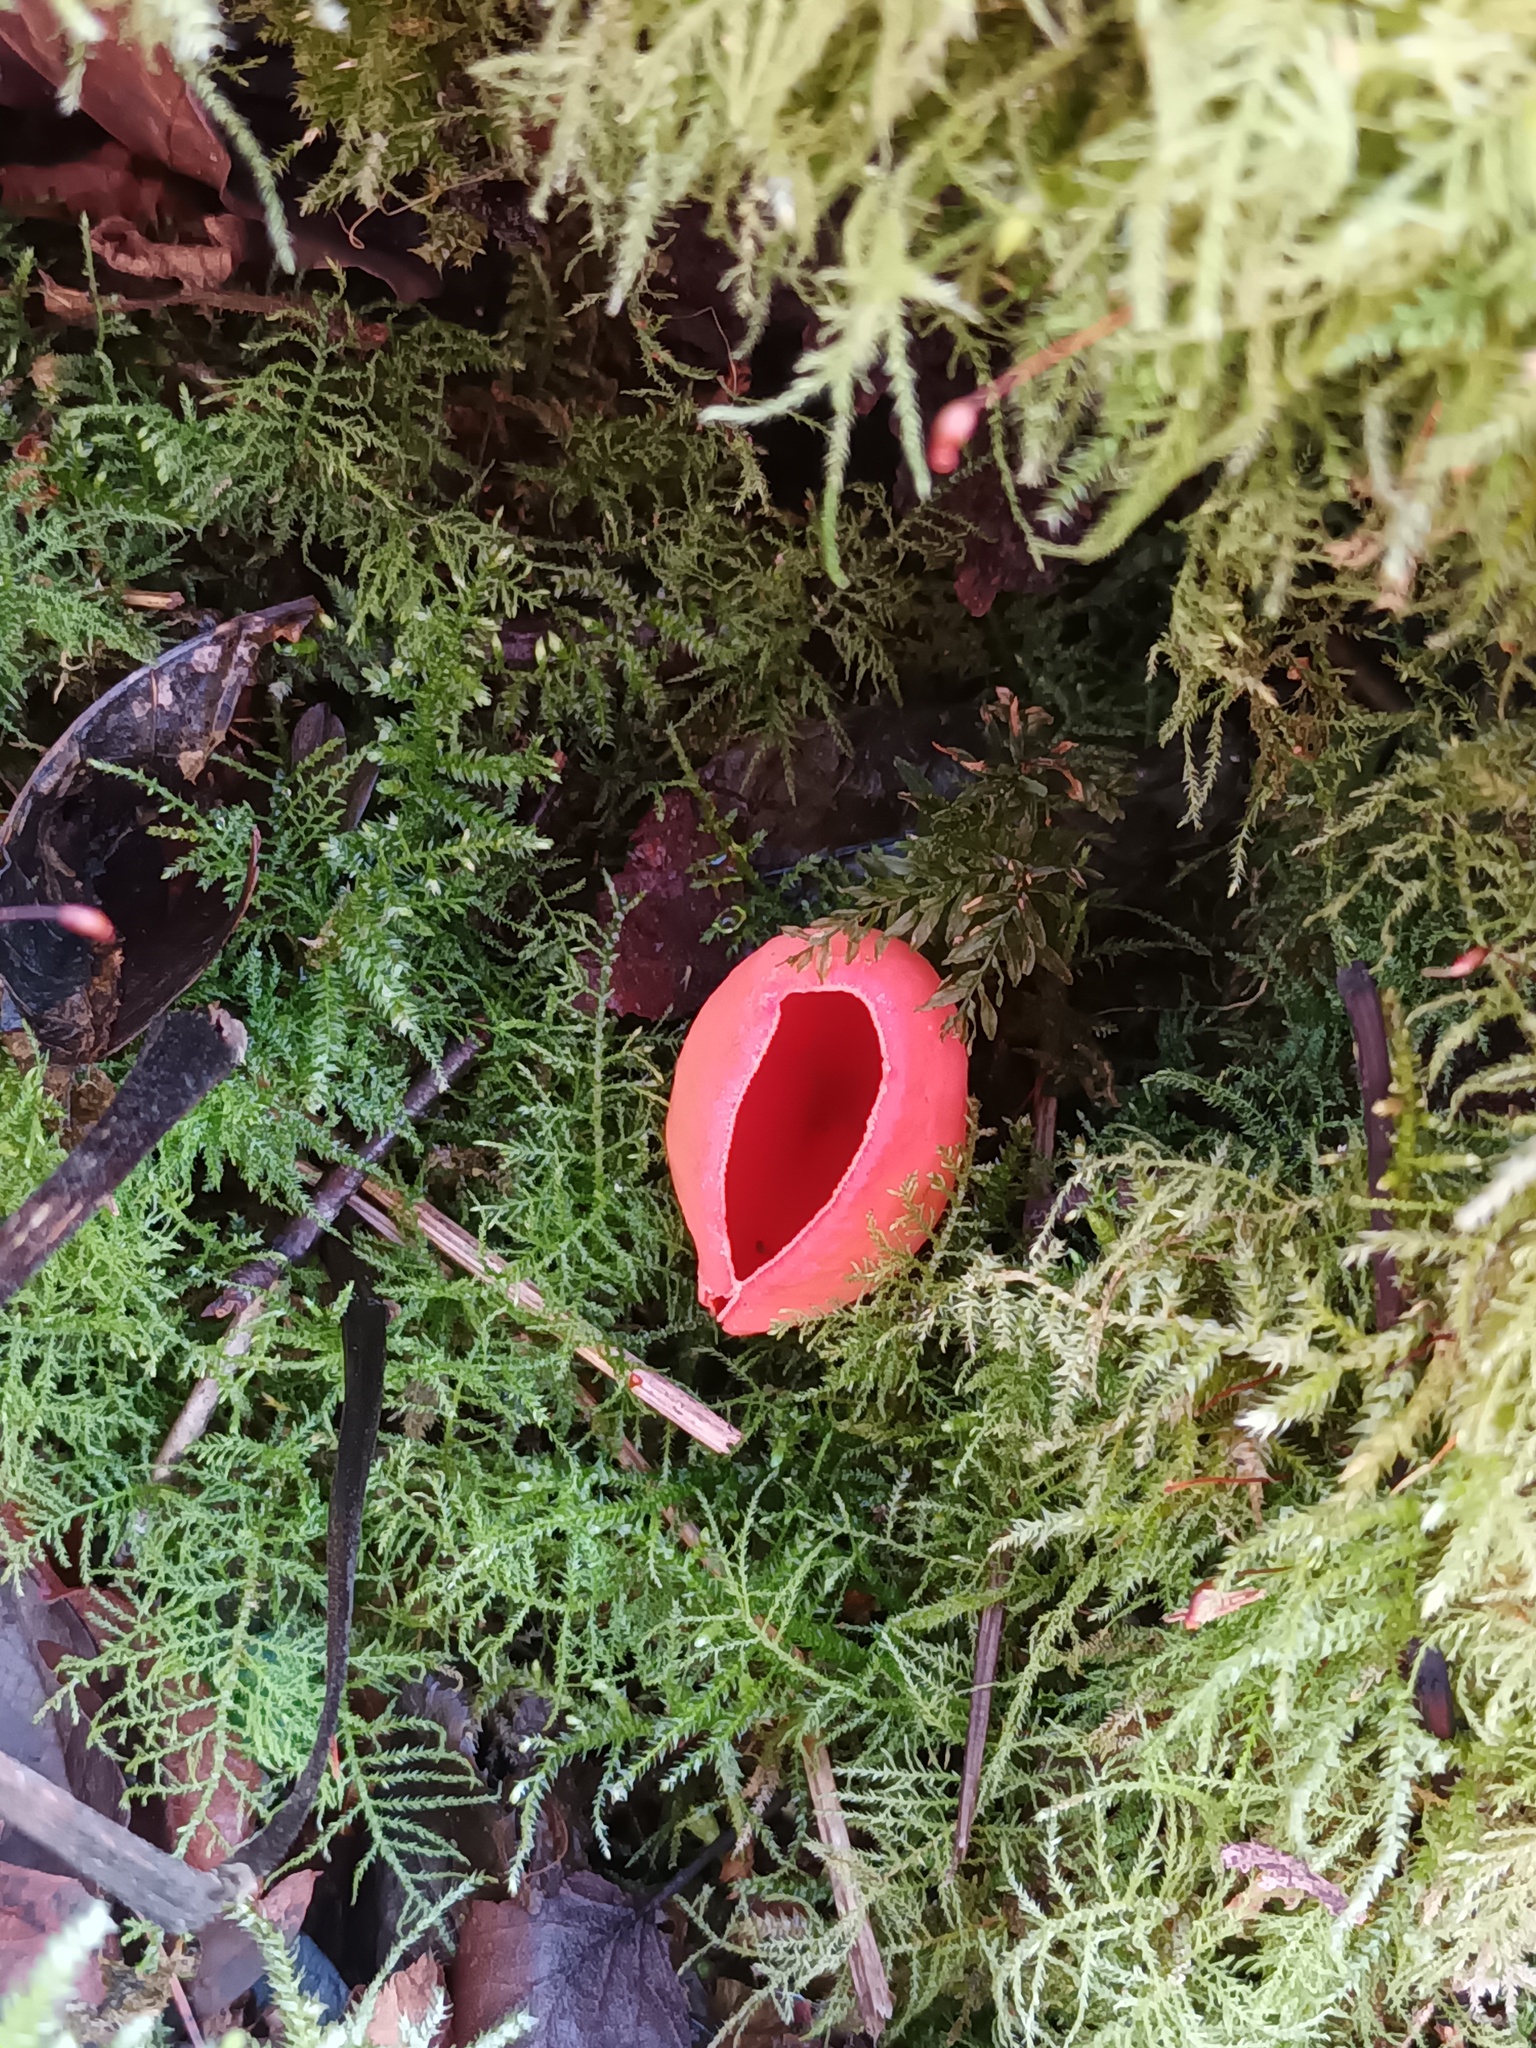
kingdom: Fungi
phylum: Ascomycota
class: Pezizomycetes
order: Pezizales
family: Sarcoscyphaceae
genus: Sarcoscypha
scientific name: Sarcoscypha
